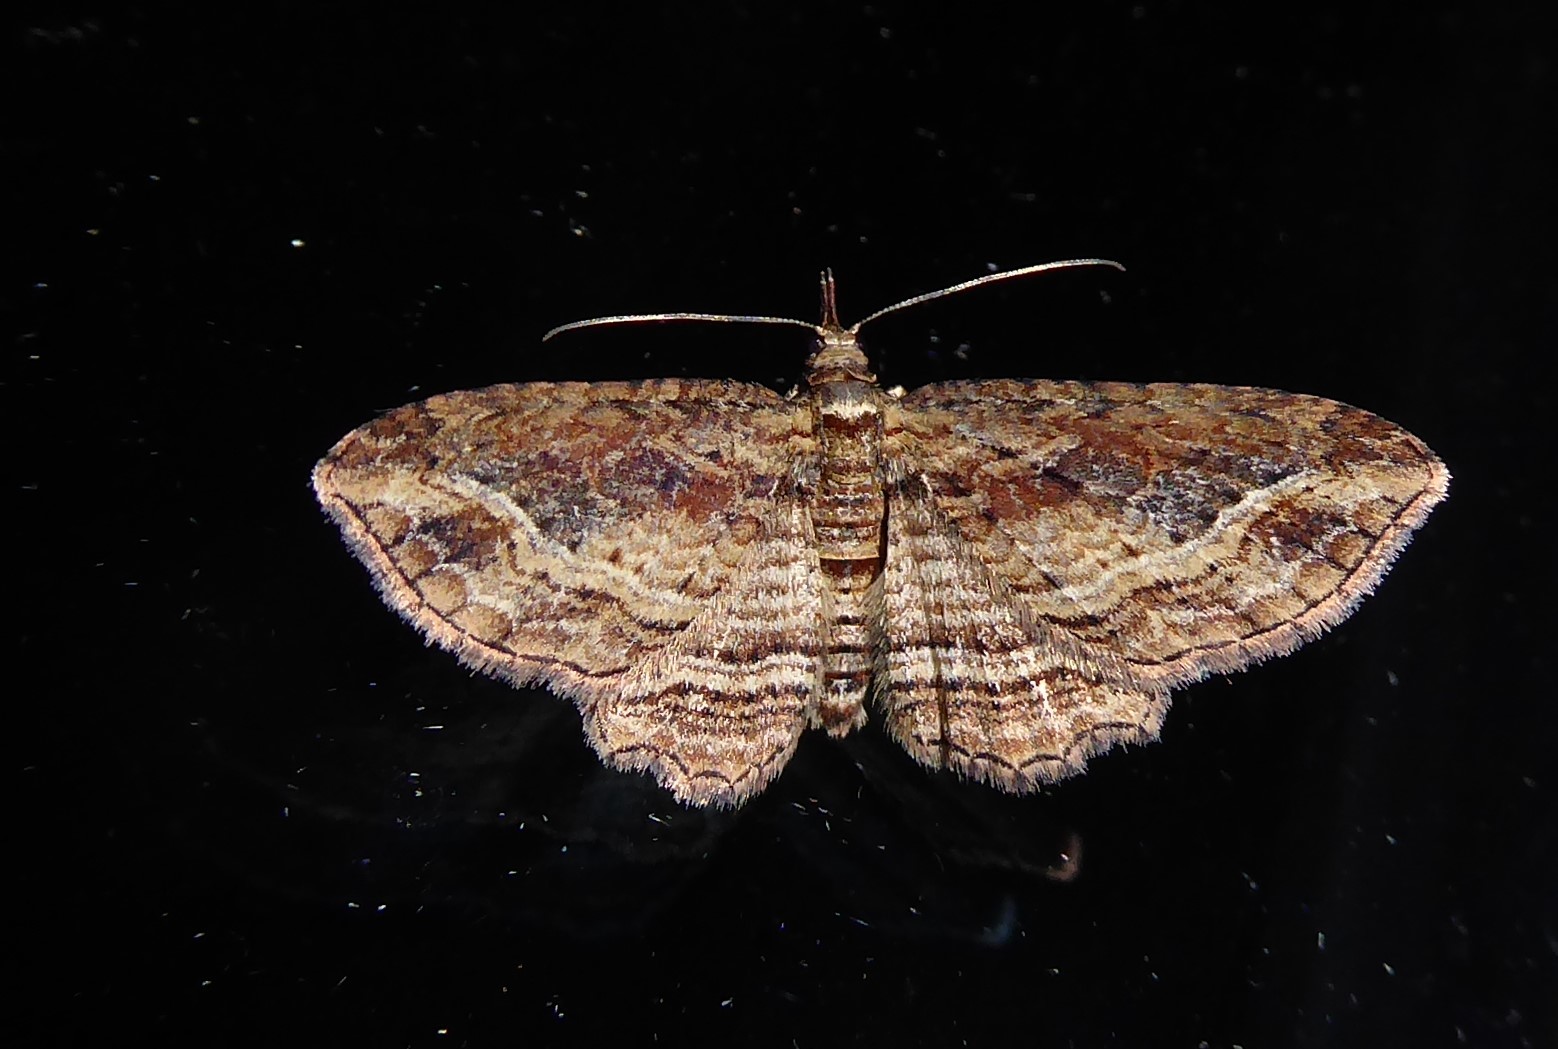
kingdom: Animalia
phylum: Arthropoda
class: Insecta
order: Lepidoptera
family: Geometridae
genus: Chloroclystis
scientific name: Chloroclystis filata
